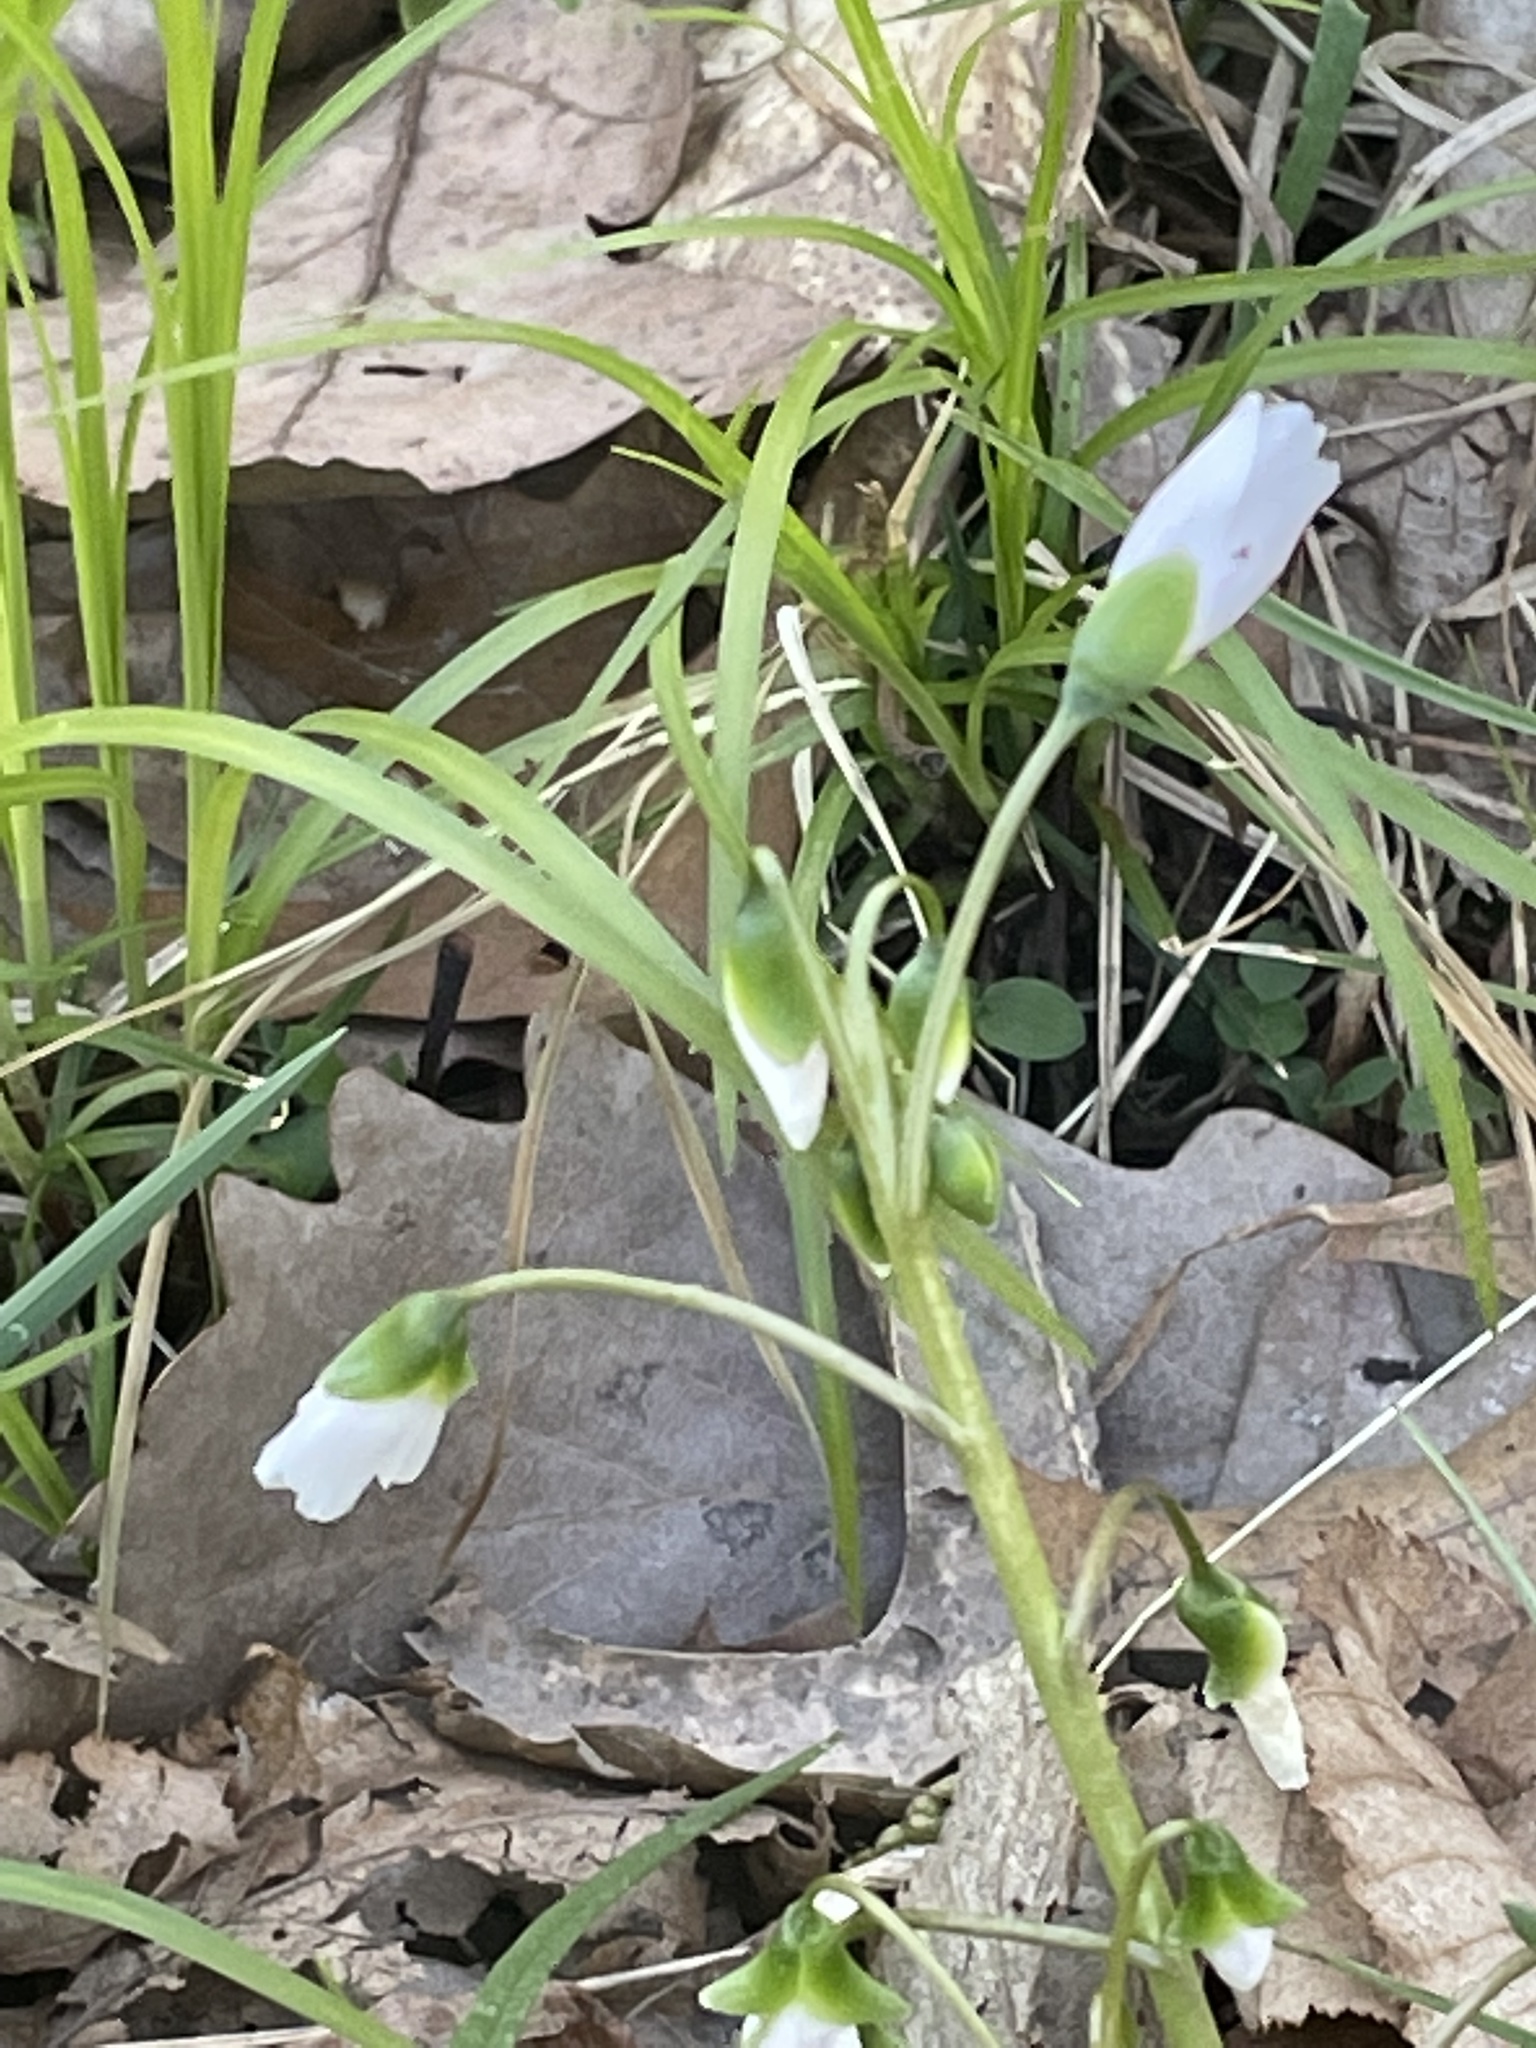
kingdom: Plantae
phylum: Tracheophyta
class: Magnoliopsida
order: Caryophyllales
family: Montiaceae
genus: Claytonia
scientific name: Claytonia virginica
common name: Virginia springbeauty
